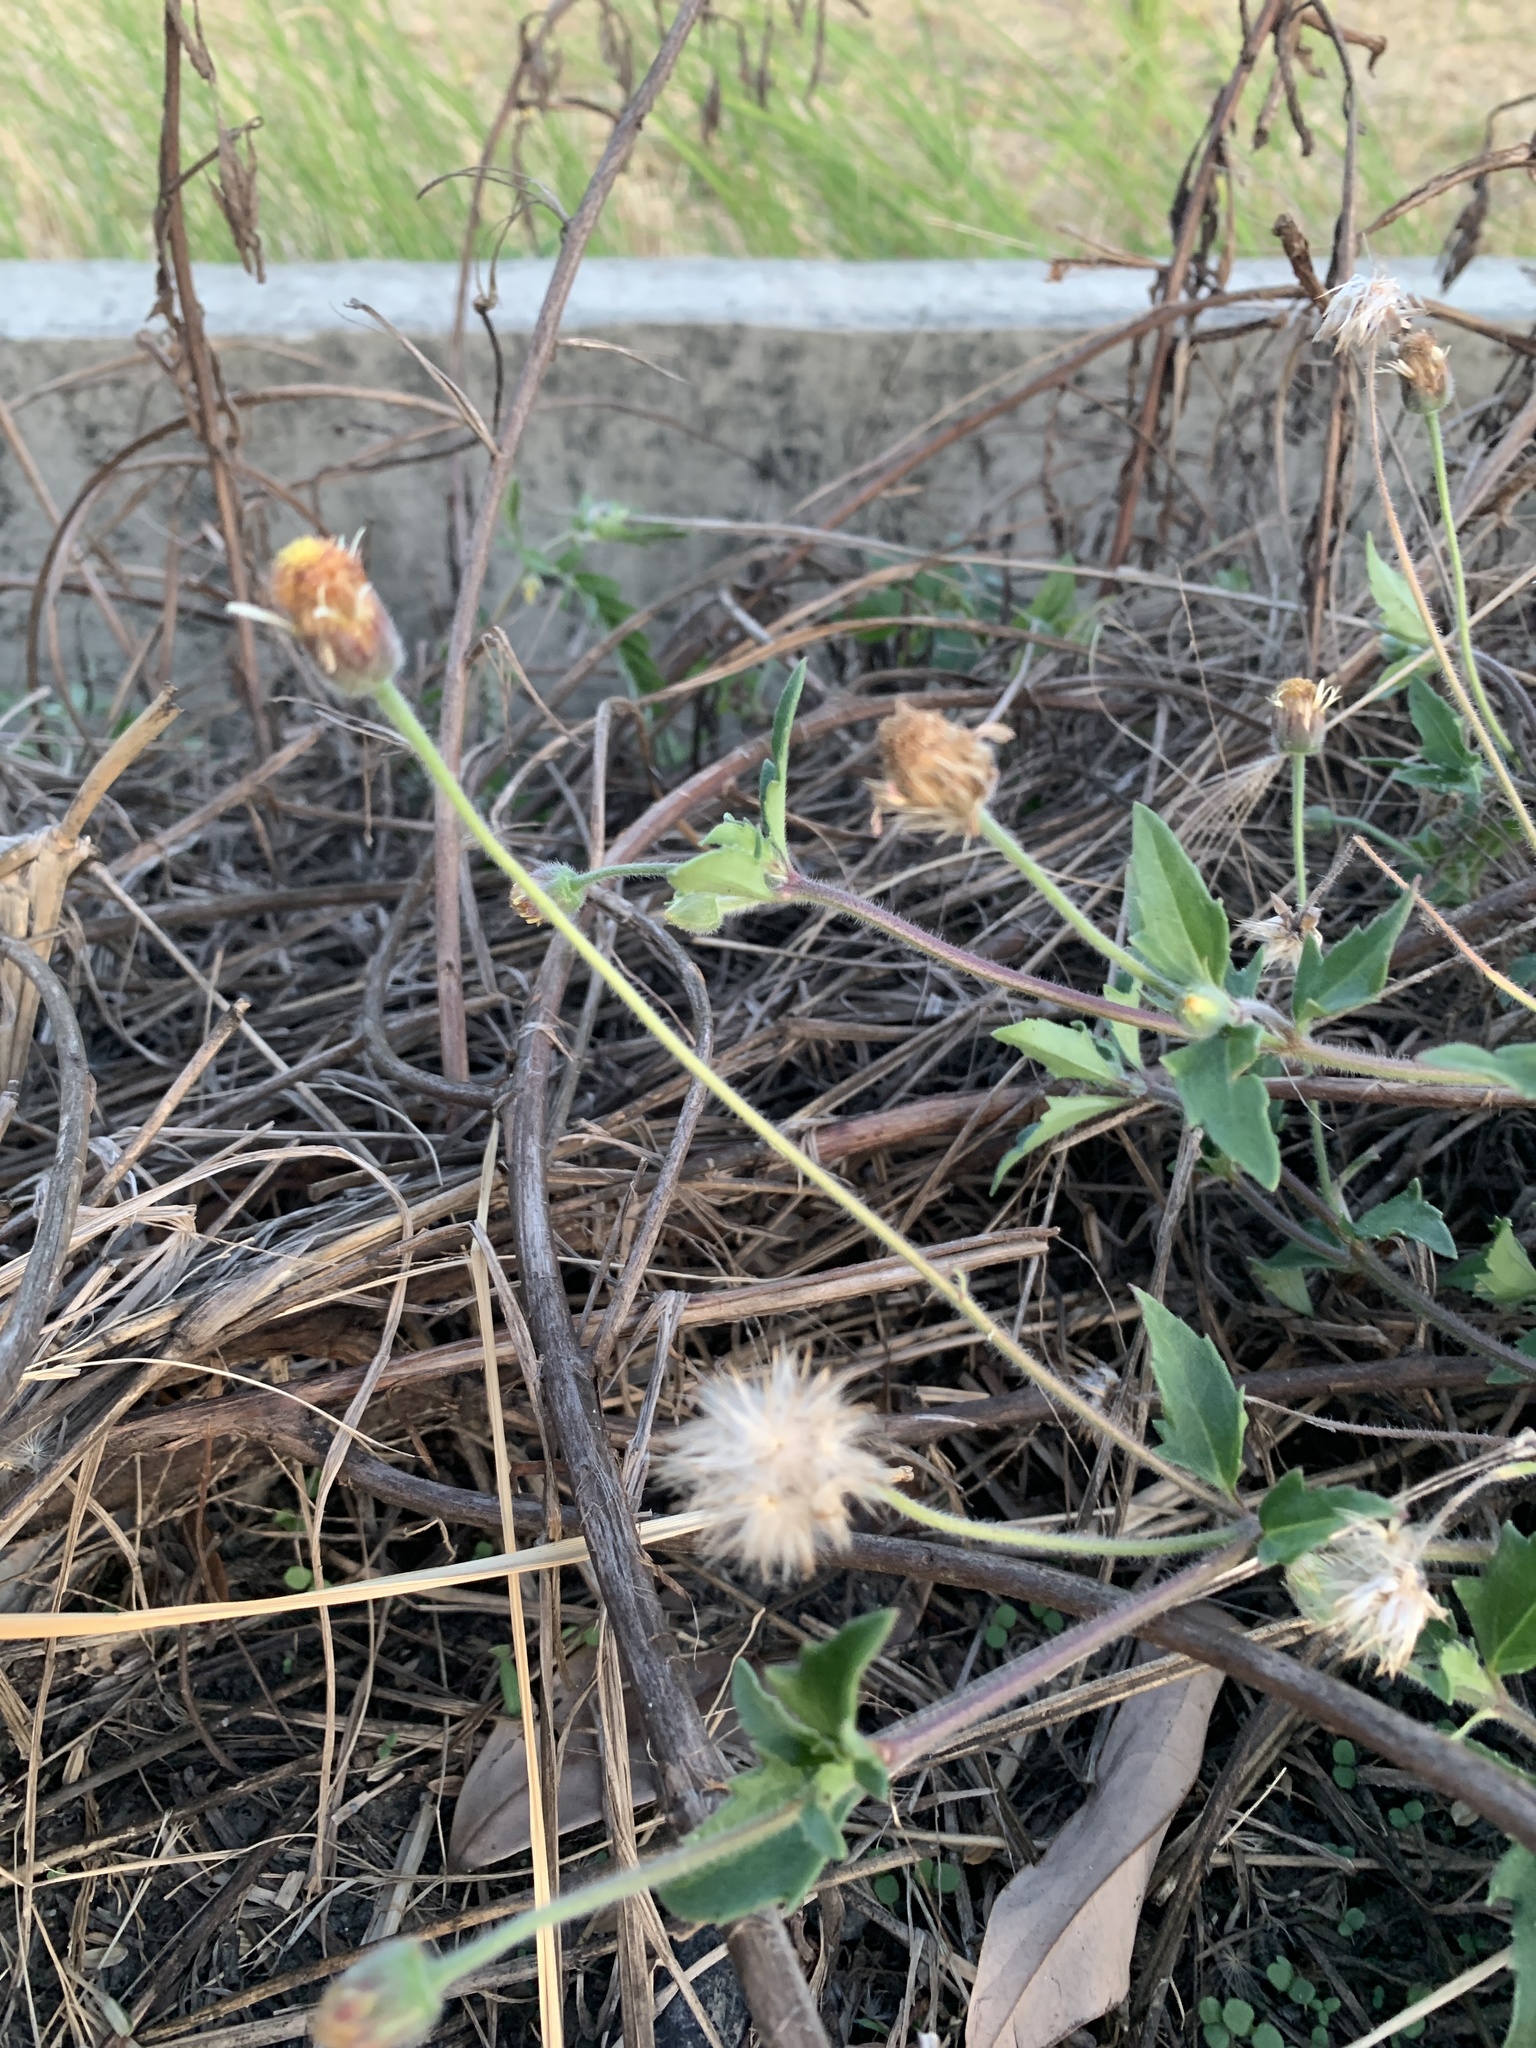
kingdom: Plantae
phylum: Tracheophyta
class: Magnoliopsida
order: Asterales
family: Asteraceae
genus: Tridax
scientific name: Tridax procumbens
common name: Coatbuttons
